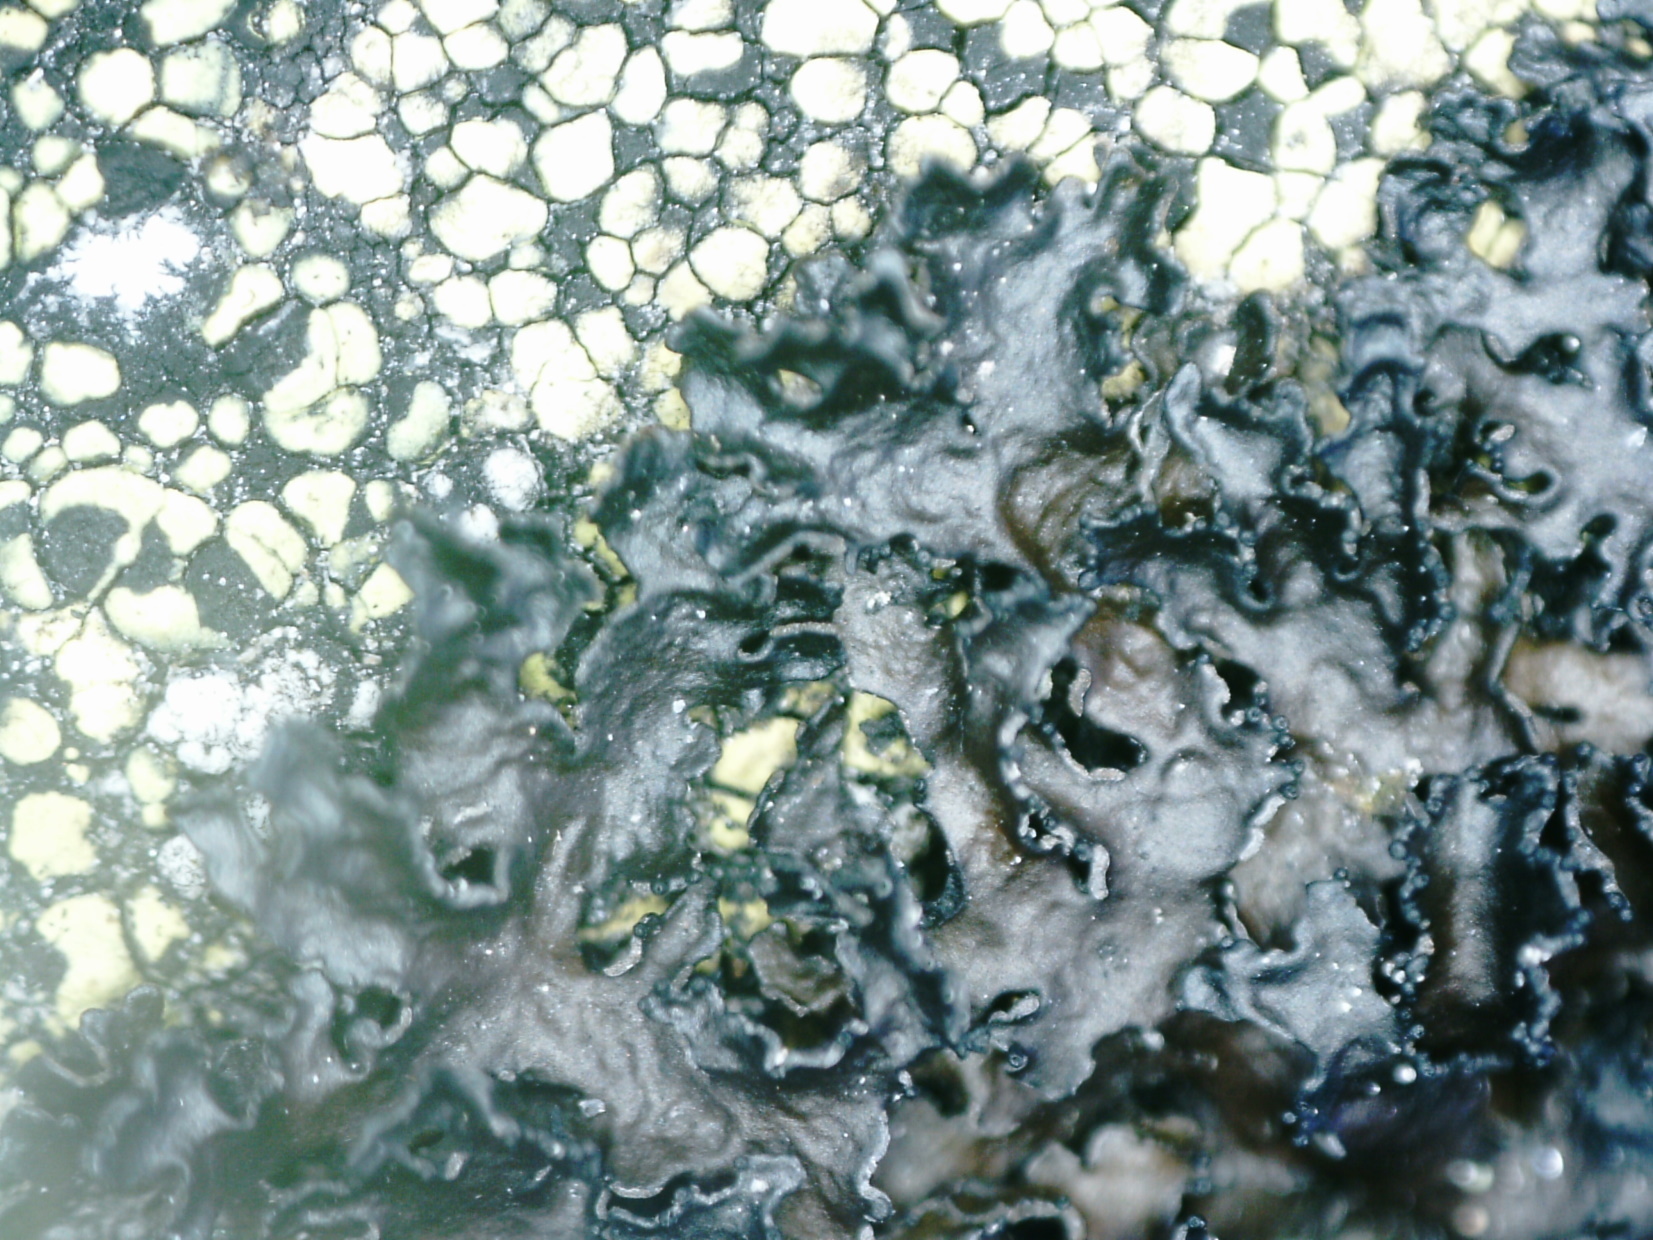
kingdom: Fungi
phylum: Ascomycota
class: Lecanoromycetes
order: Lecanorales
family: Parmeliaceae
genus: Melanelia
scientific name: Melanelia commixta
